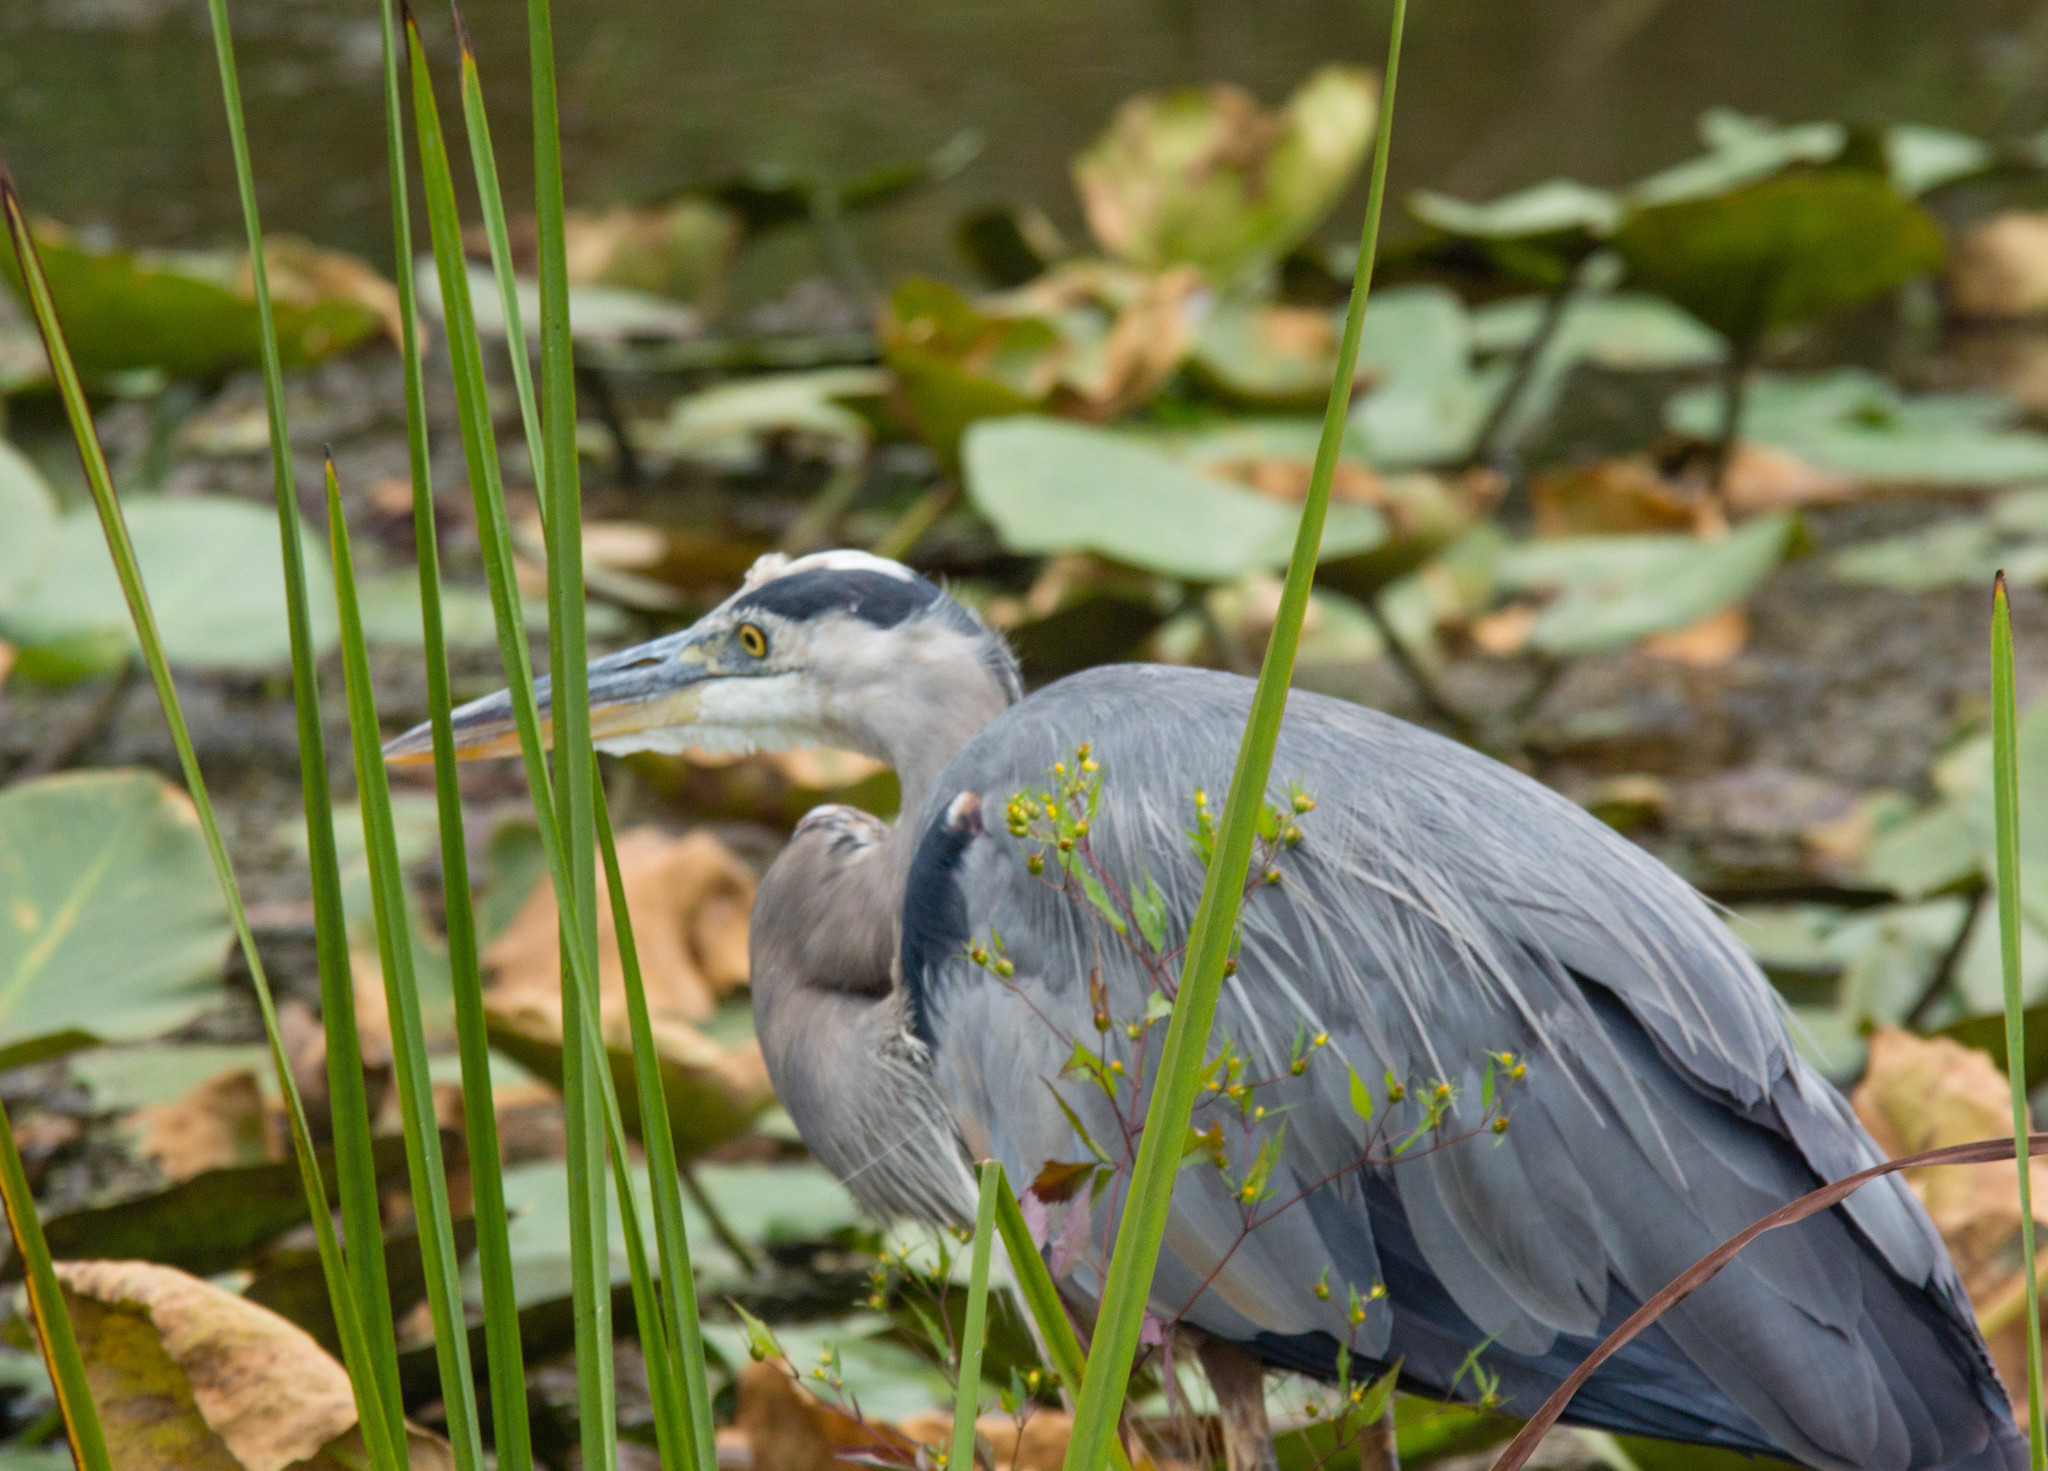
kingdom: Animalia
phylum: Chordata
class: Aves
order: Pelecaniformes
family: Ardeidae
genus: Ardea
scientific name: Ardea herodias
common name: Great blue heron
